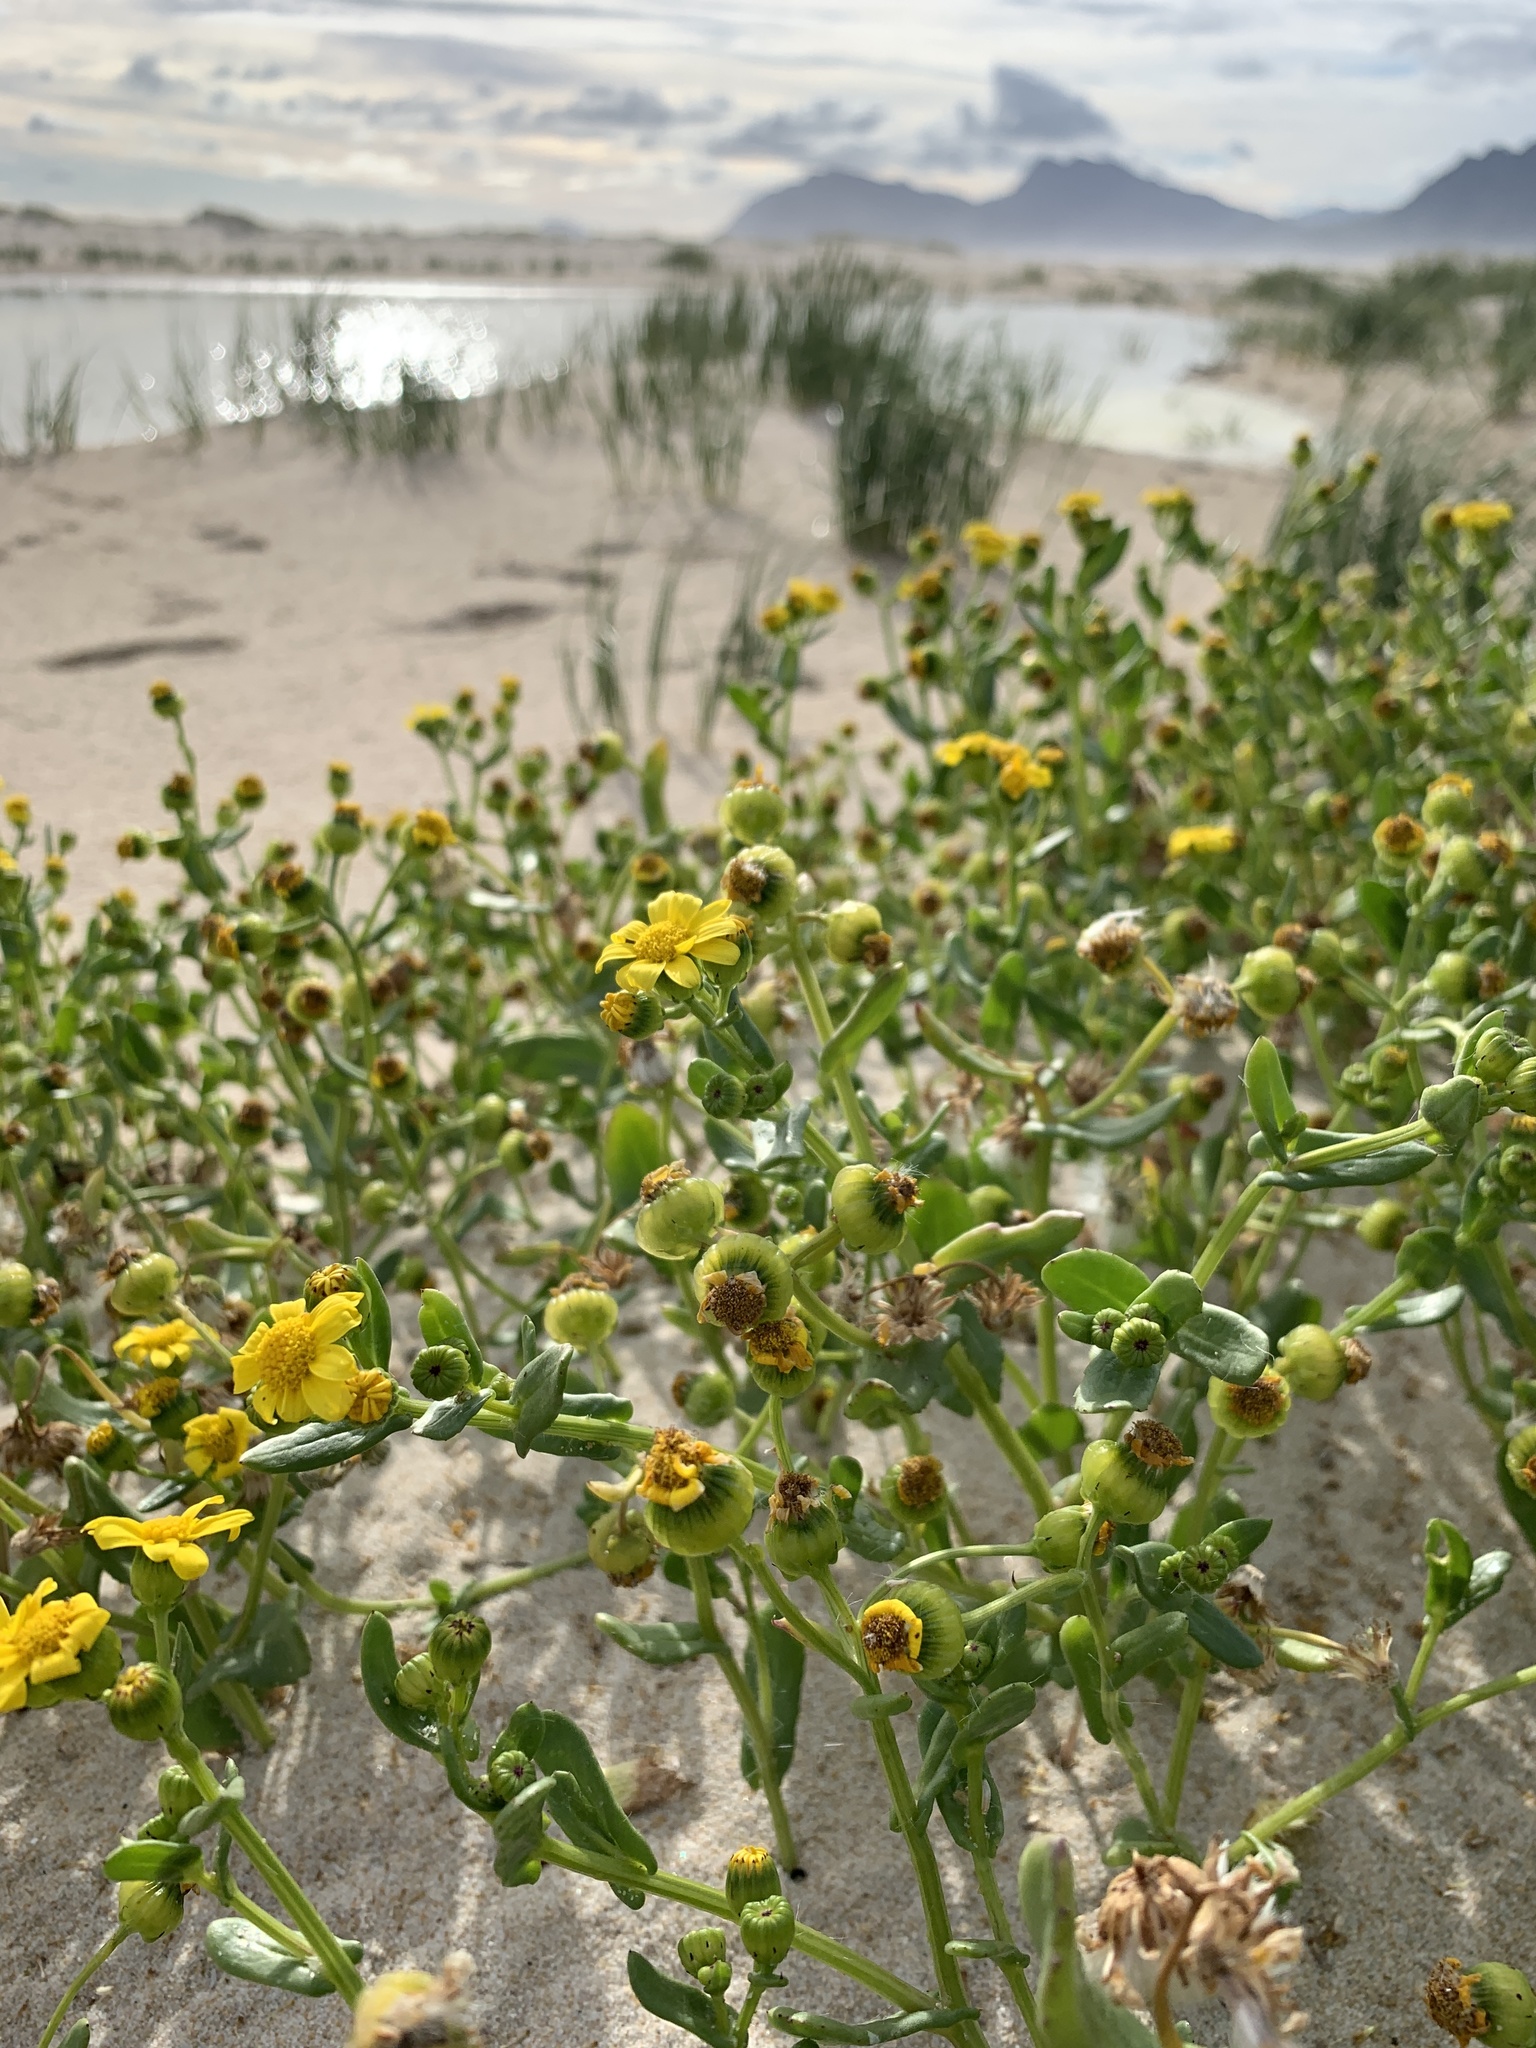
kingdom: Plantae
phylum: Tracheophyta
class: Magnoliopsida
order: Asterales
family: Asteraceae
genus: Senecio
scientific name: Senecio maritimus
